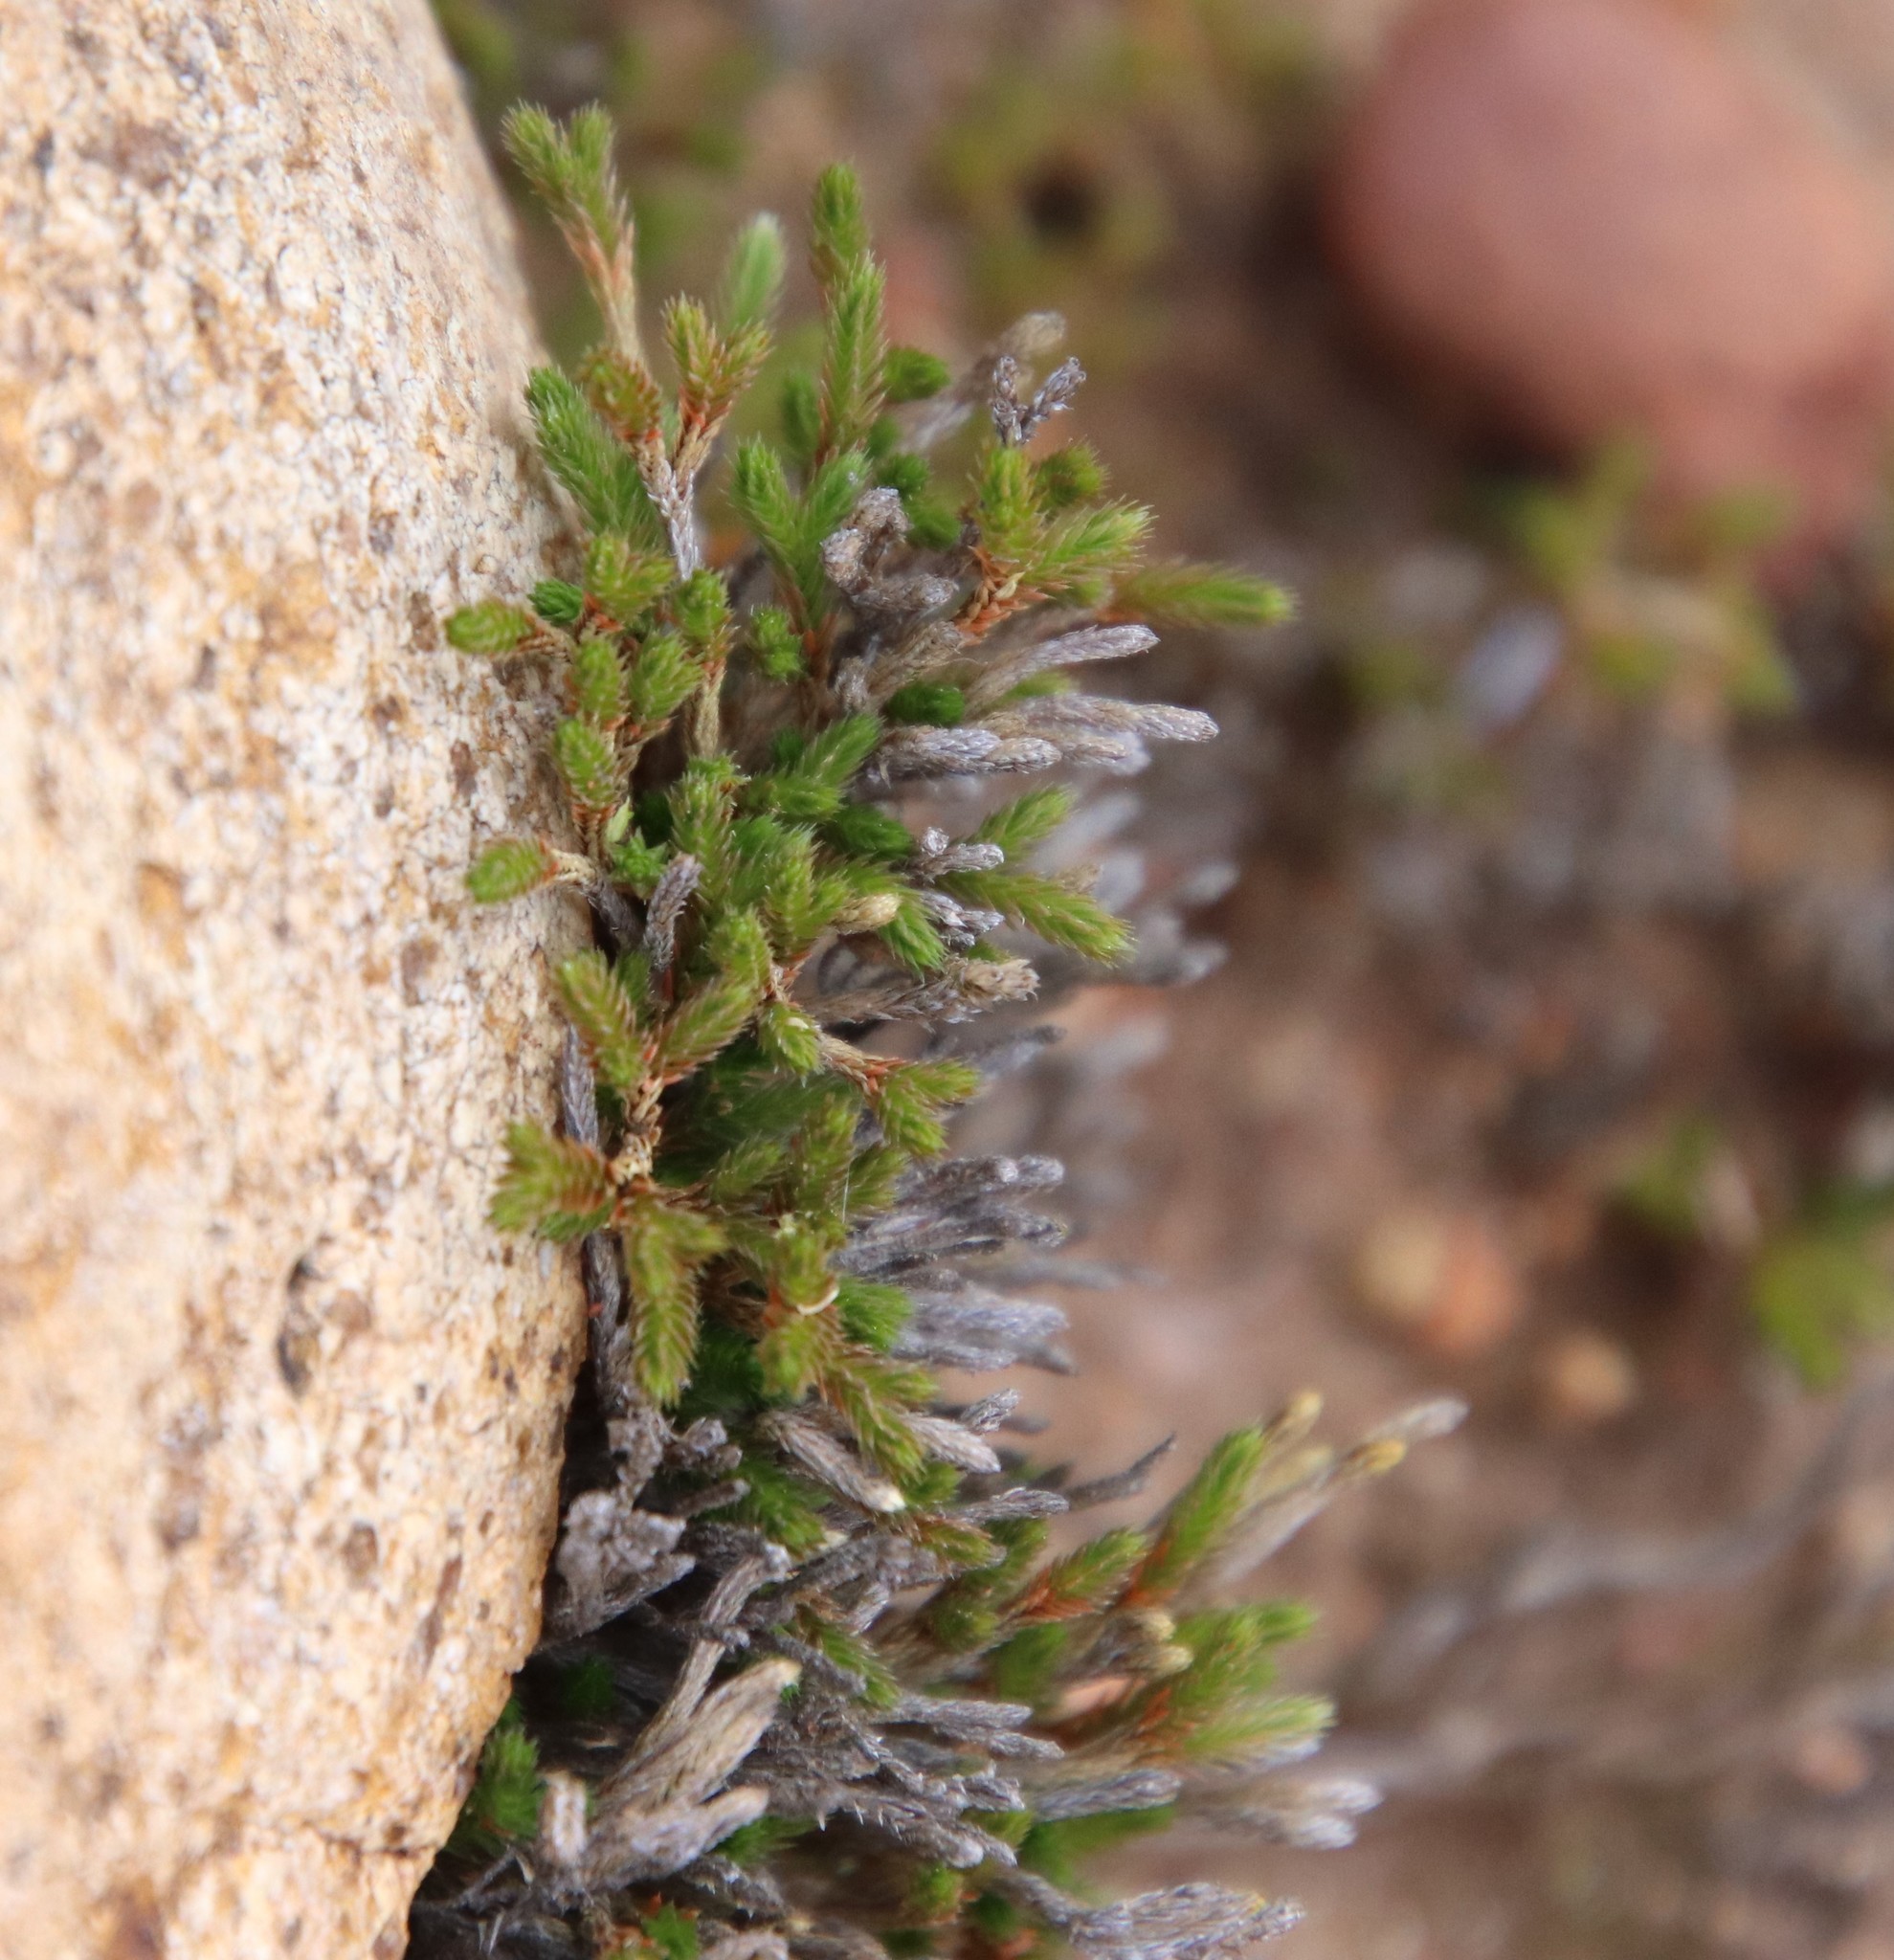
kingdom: Plantae
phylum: Tracheophyta
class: Lycopodiopsida
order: Selaginellales
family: Selaginellaceae
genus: Selaginella
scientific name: Selaginella bigelovii
